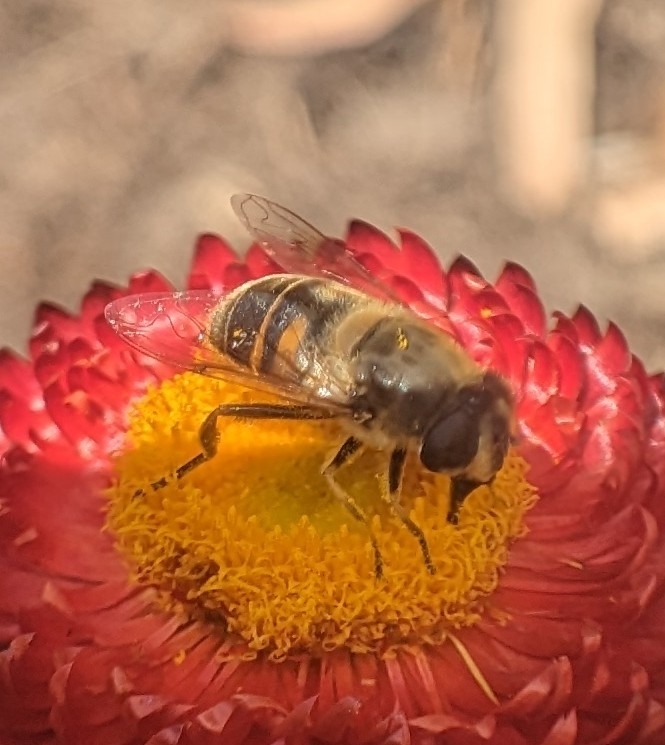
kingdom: Animalia
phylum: Arthropoda
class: Insecta
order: Diptera
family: Syrphidae
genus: Eristalis
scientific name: Eristalis tenax
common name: Drone fly
